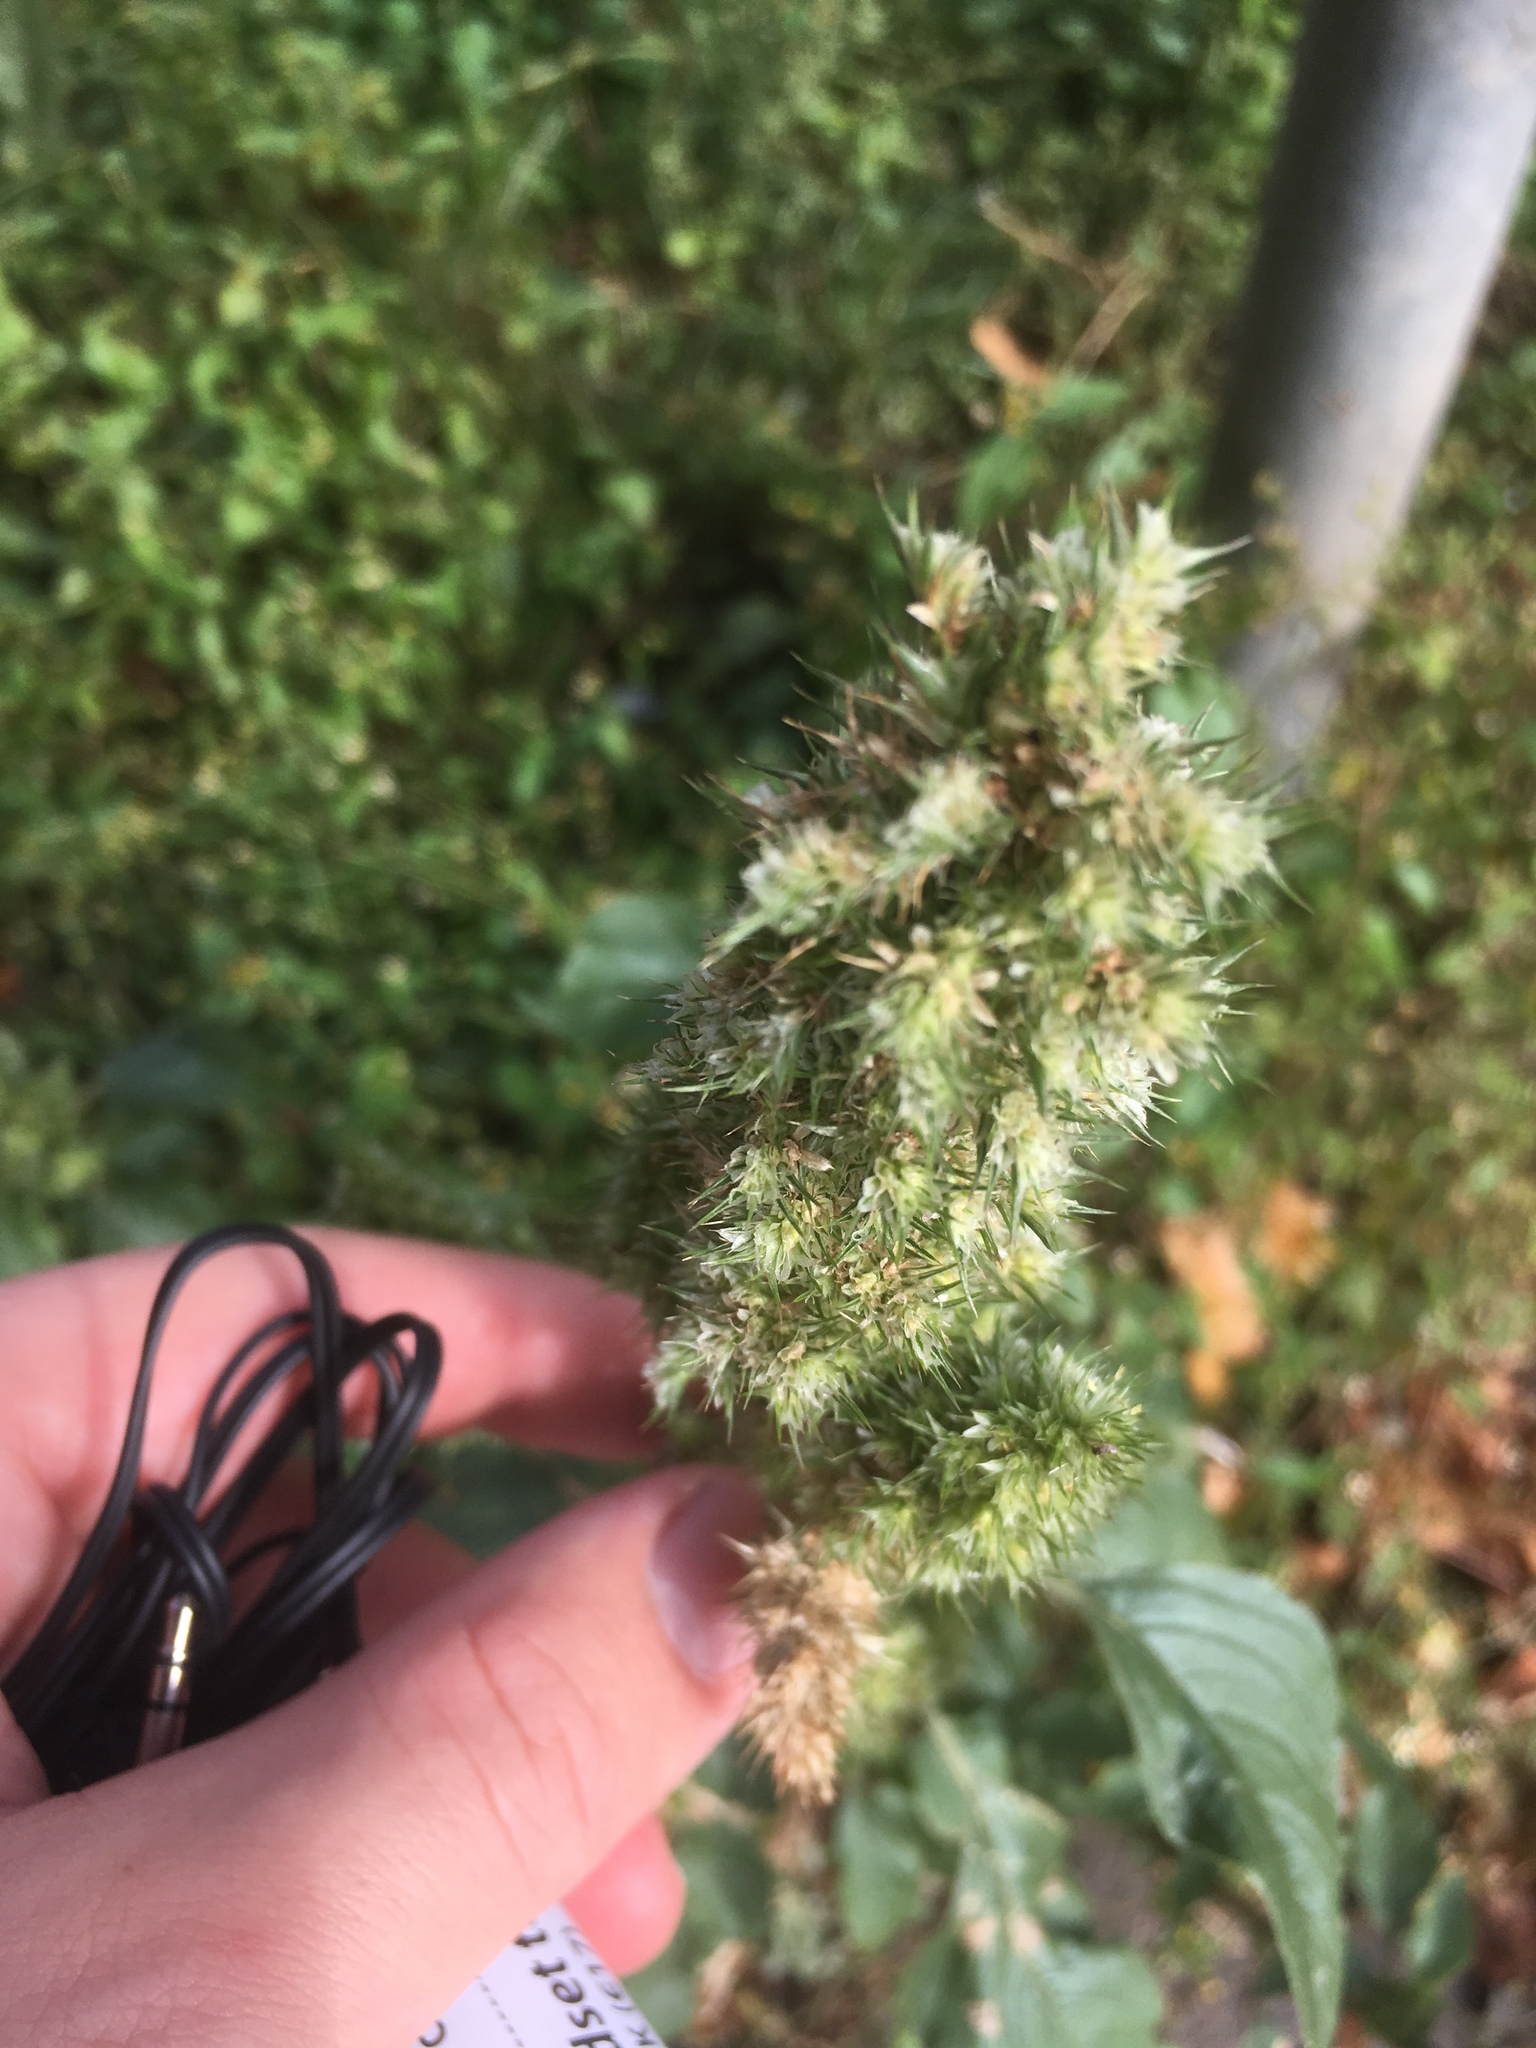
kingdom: Plantae
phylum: Tracheophyta
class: Magnoliopsida
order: Caryophyllales
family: Amaranthaceae
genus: Amaranthus
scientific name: Amaranthus retroflexus
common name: Redroot amaranth
